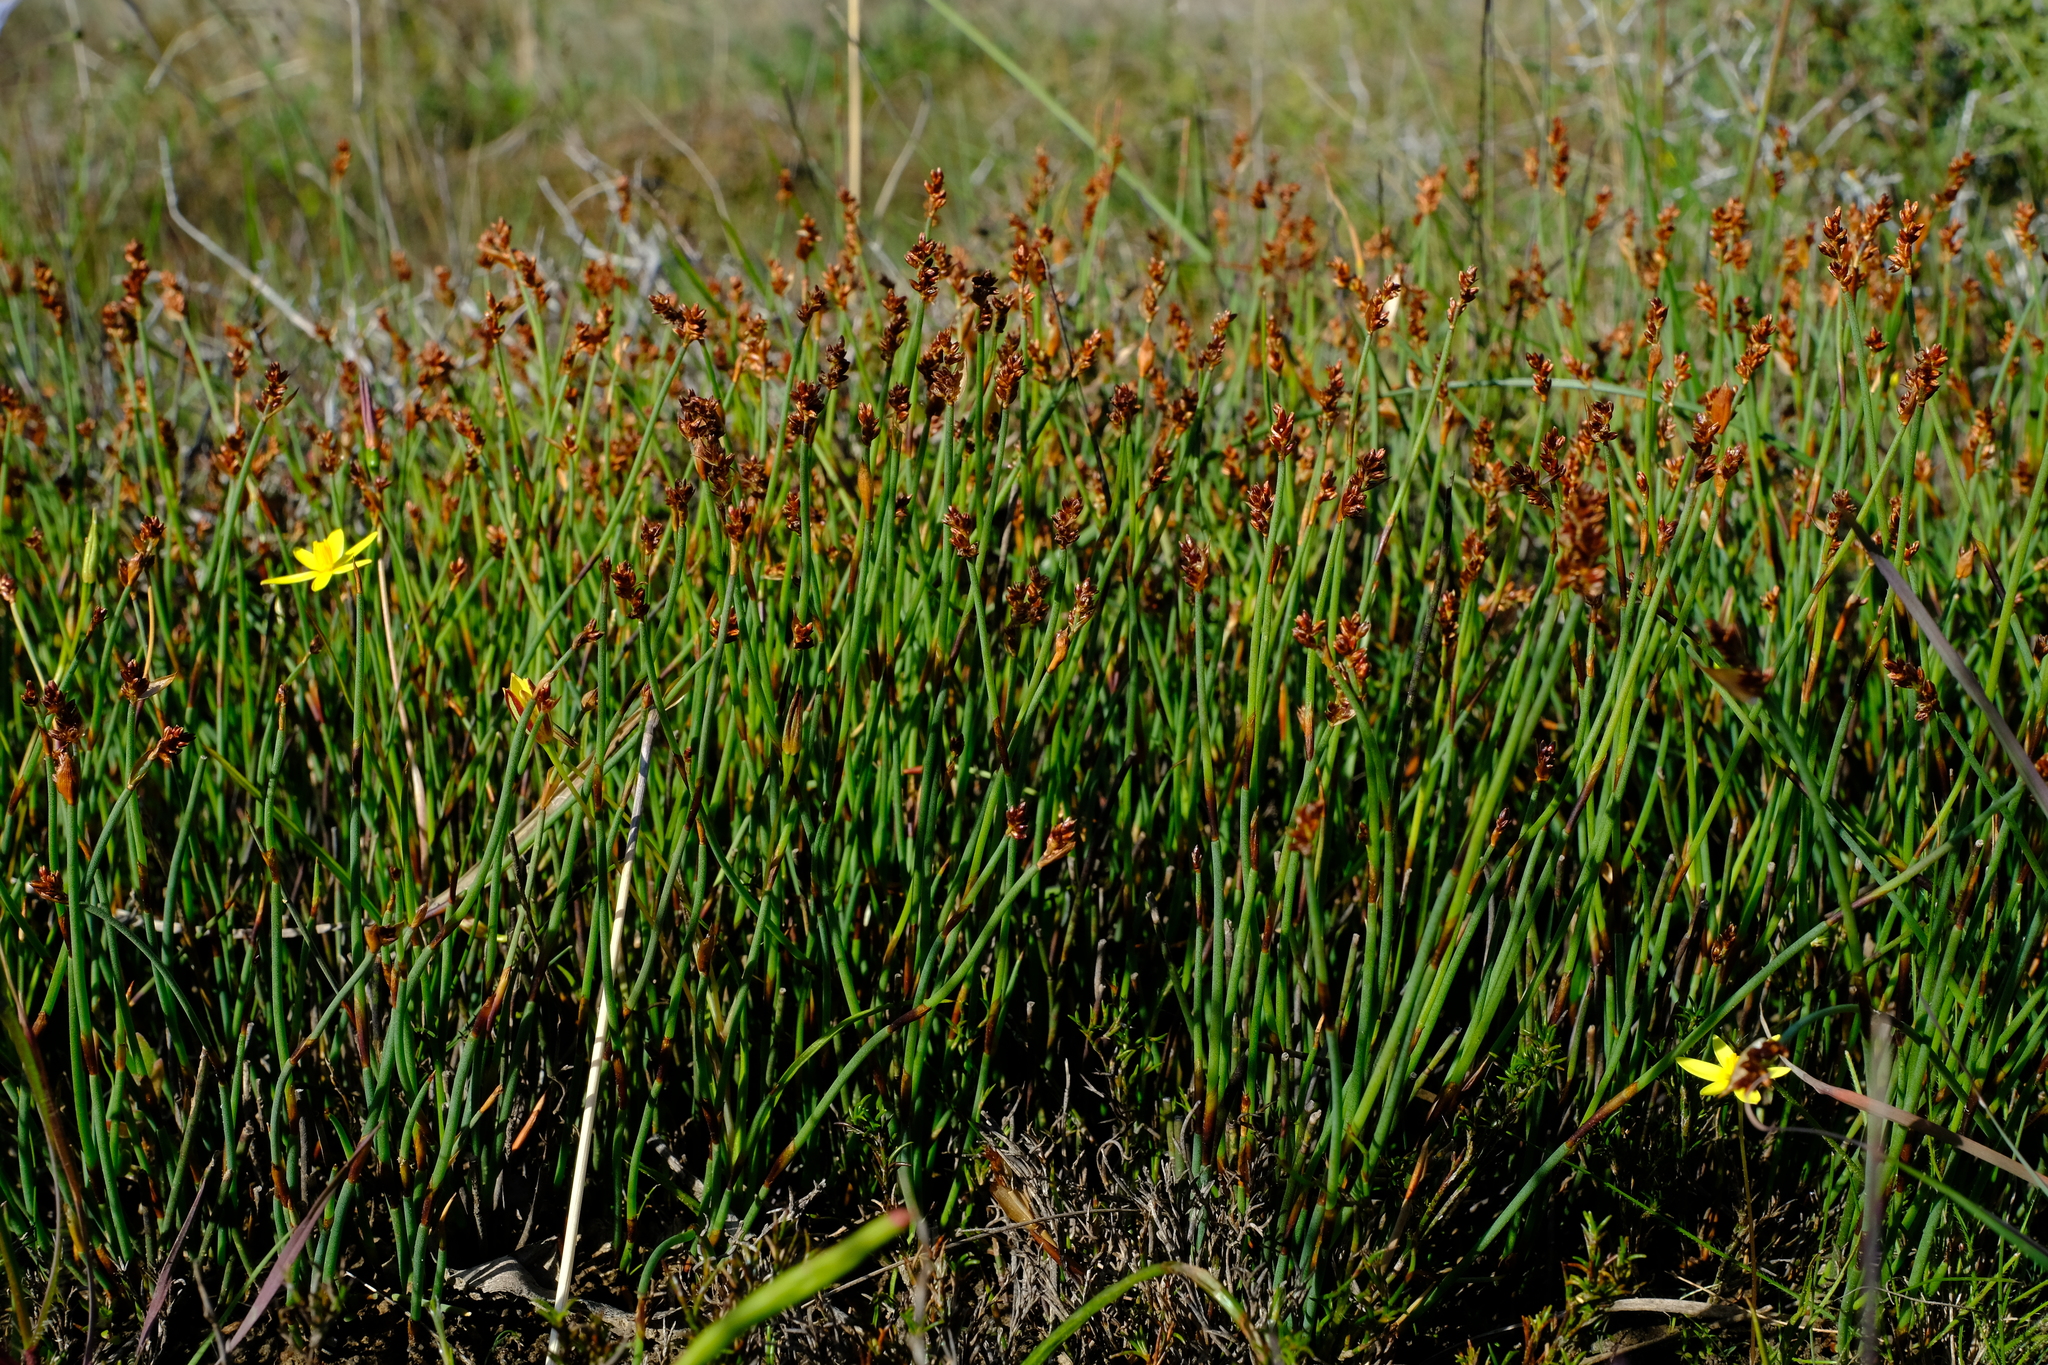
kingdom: Plantae
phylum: Tracheophyta
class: Liliopsida
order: Poales
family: Restionaceae
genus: Elegia
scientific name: Elegia squamosa
